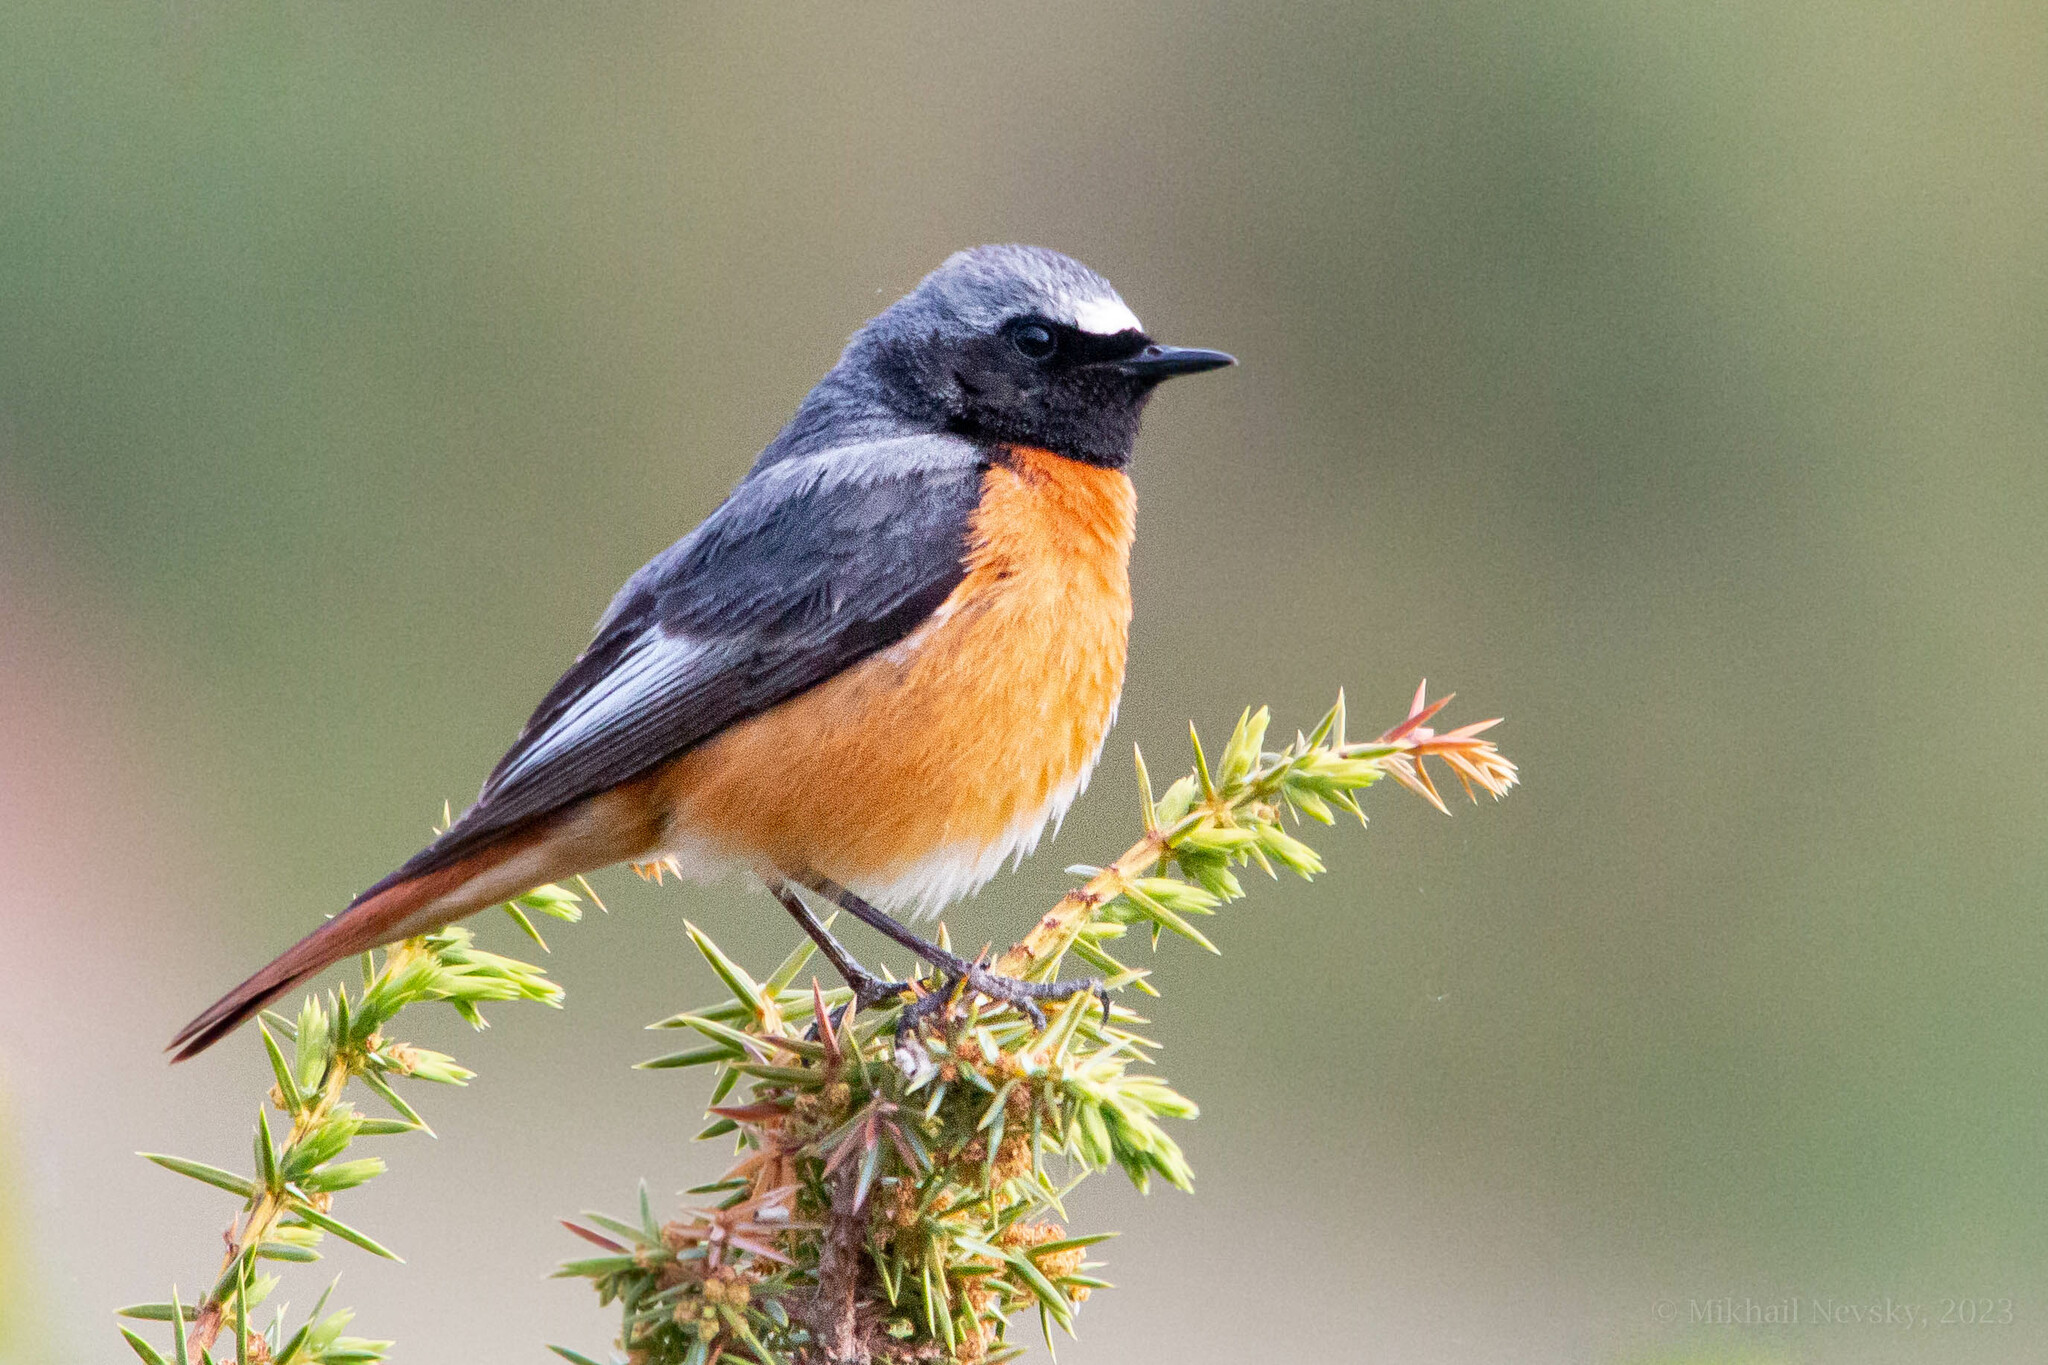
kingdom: Animalia
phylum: Chordata
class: Aves
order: Passeriformes
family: Muscicapidae
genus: Phoenicurus
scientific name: Phoenicurus phoenicurus
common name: Common redstart
